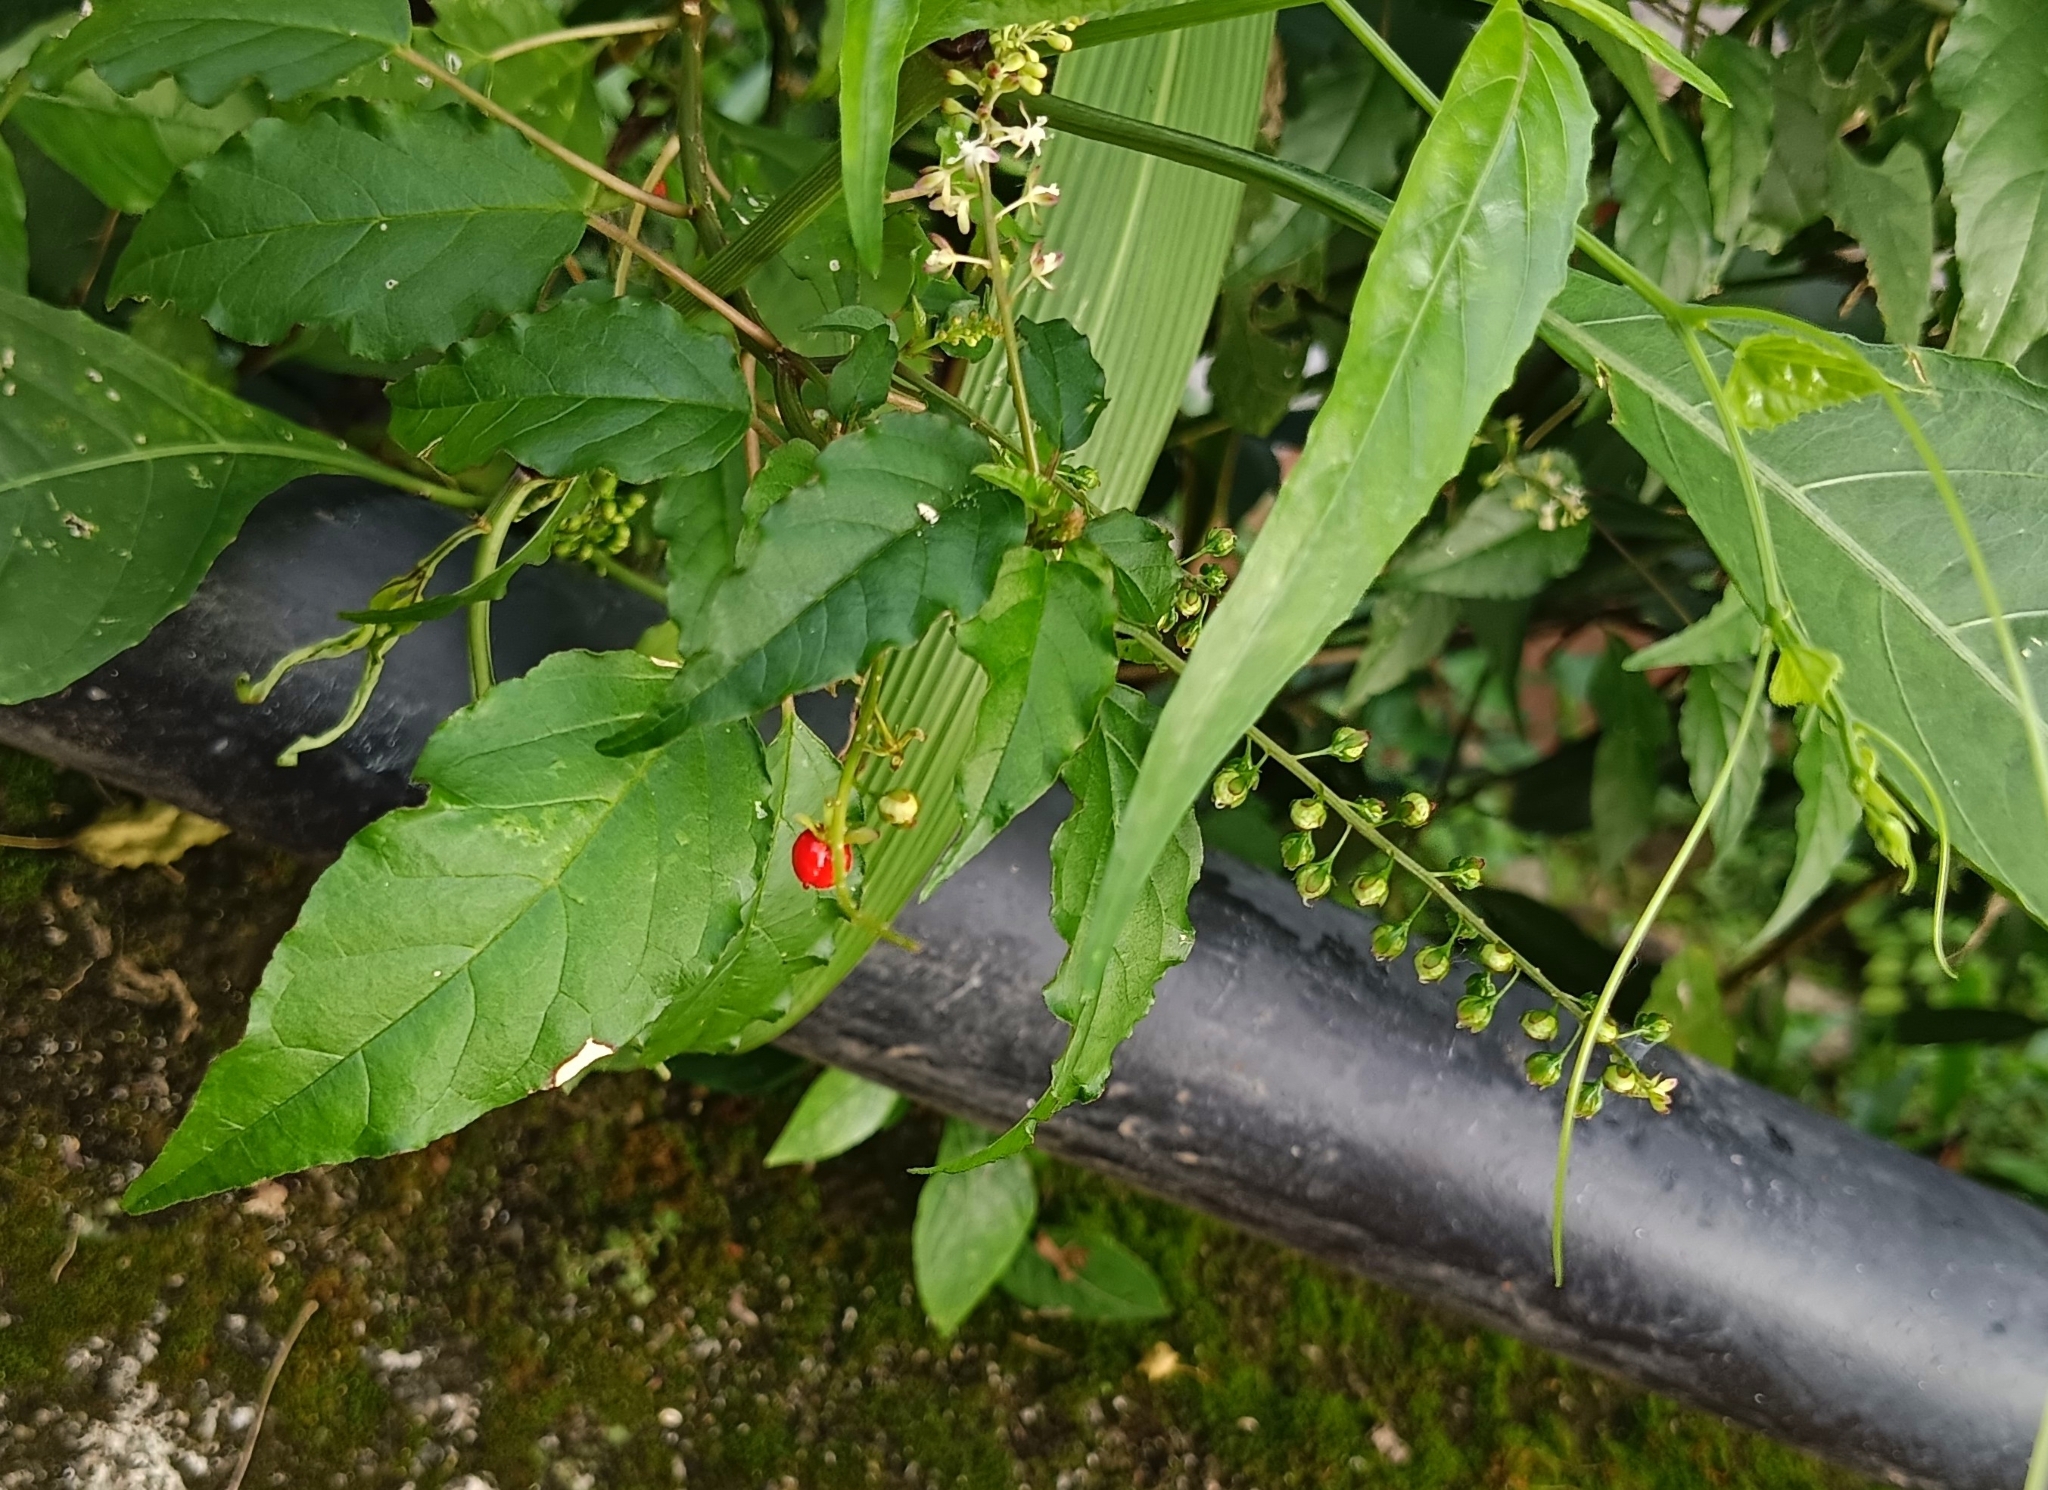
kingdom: Plantae
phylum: Tracheophyta
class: Magnoliopsida
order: Caryophyllales
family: Phytolaccaceae
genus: Rivina
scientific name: Rivina humilis
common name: Rougeplant
